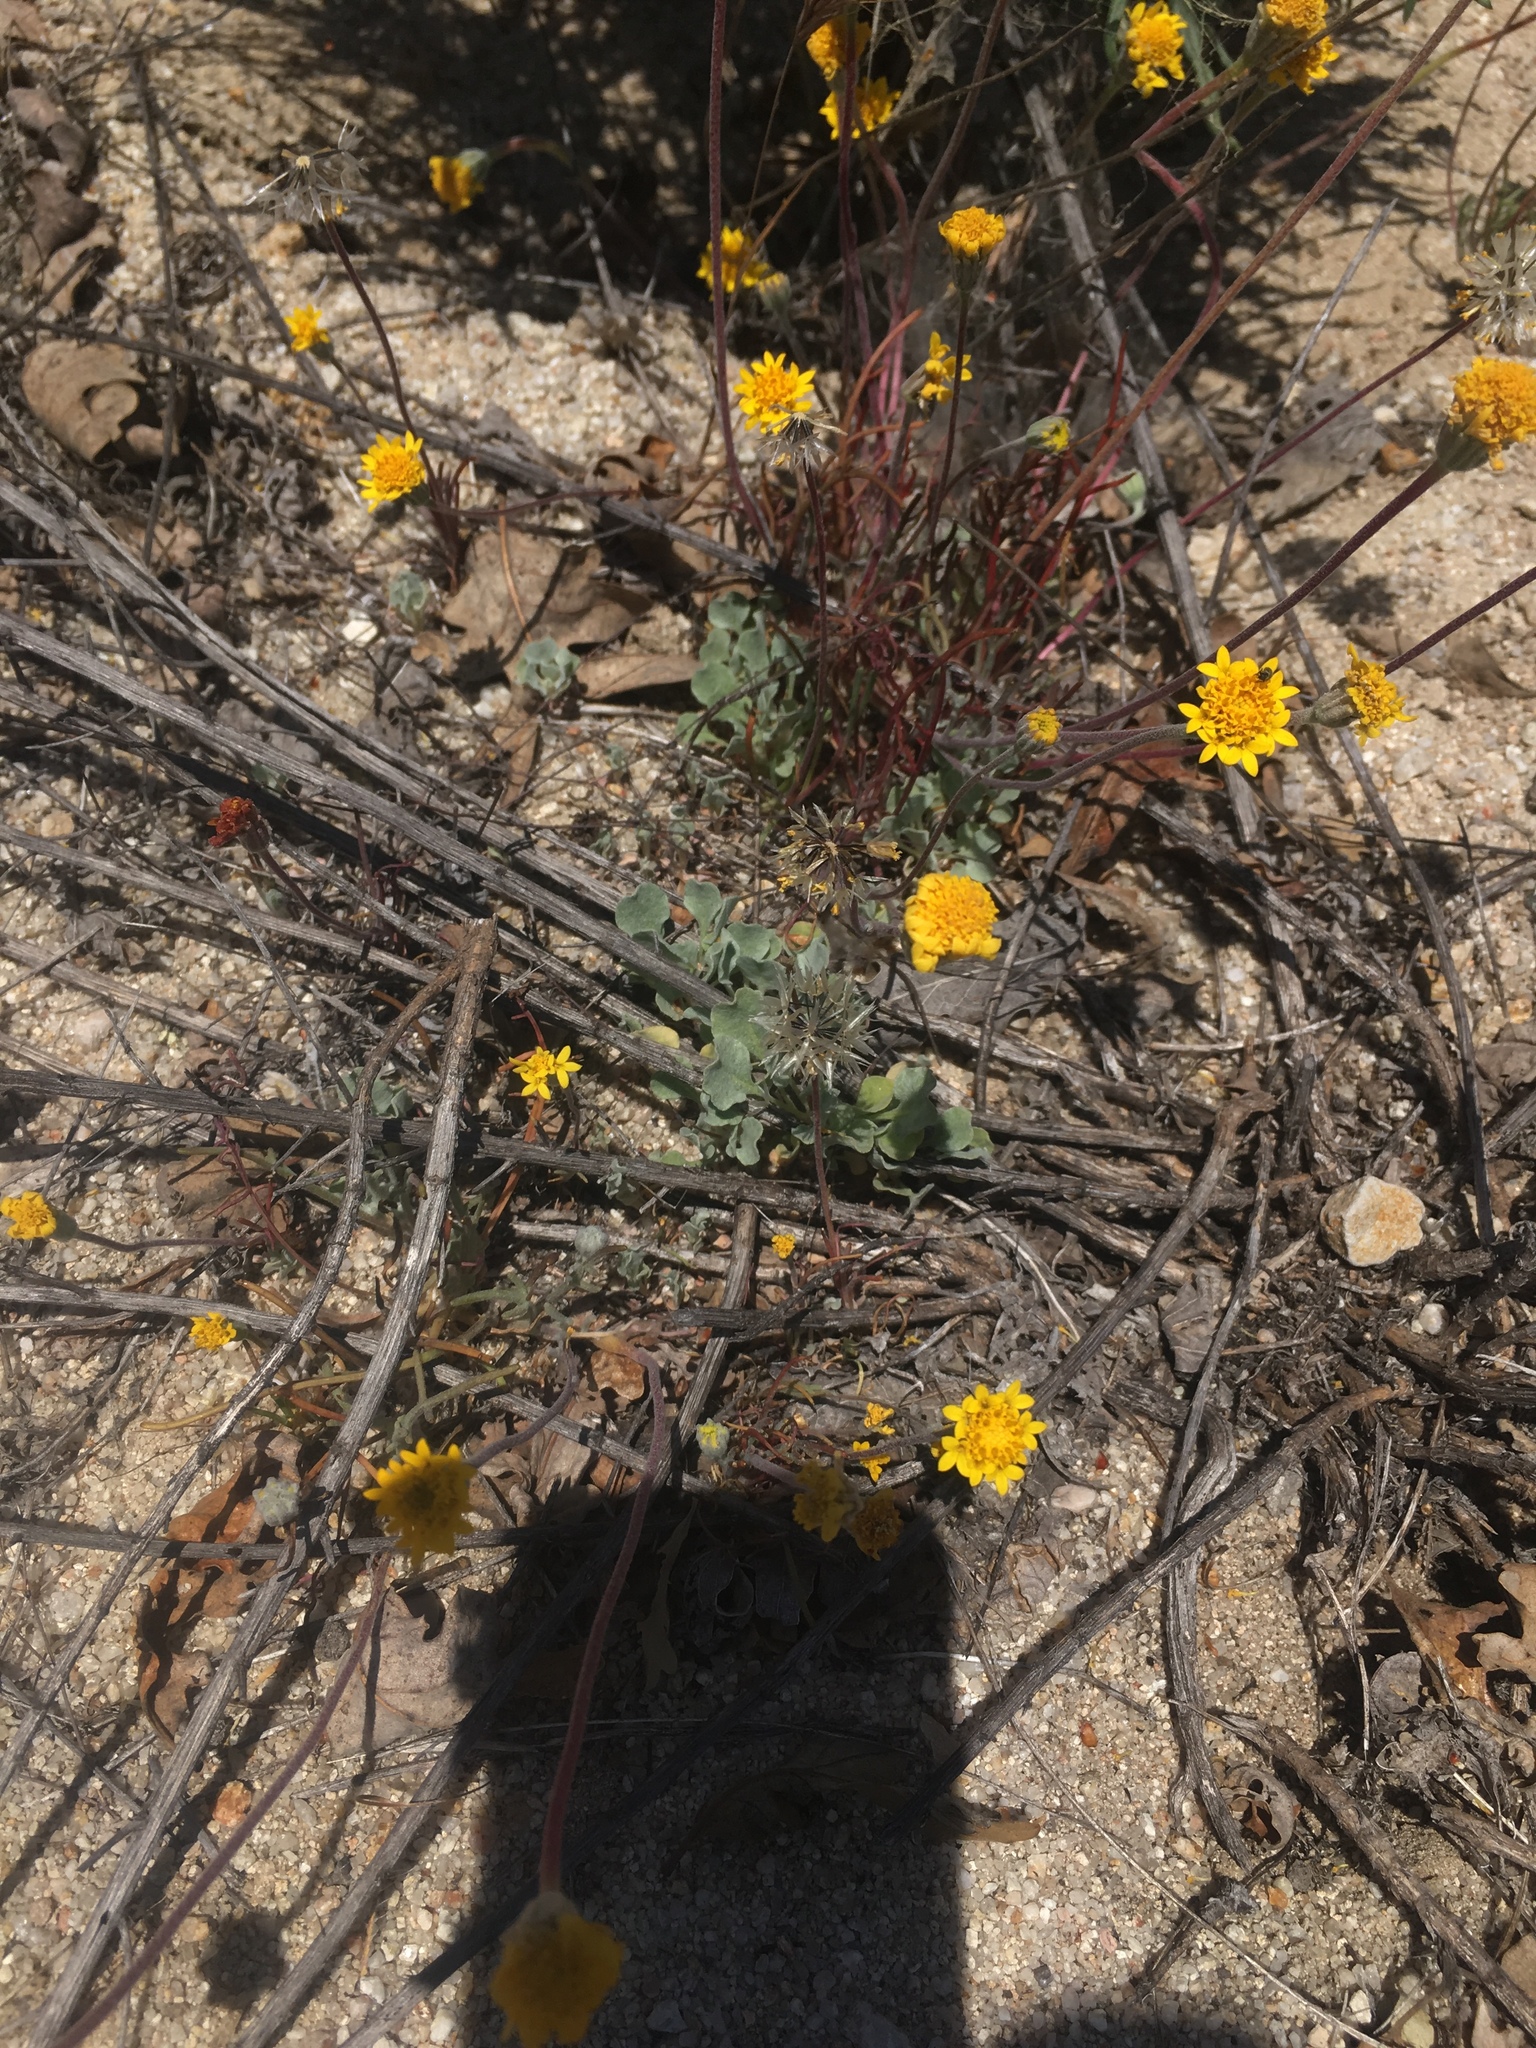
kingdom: Plantae
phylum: Tracheophyta
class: Magnoliopsida
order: Caryophyllales
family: Polygonaceae
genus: Eriogonum
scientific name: Eriogonum elegans
